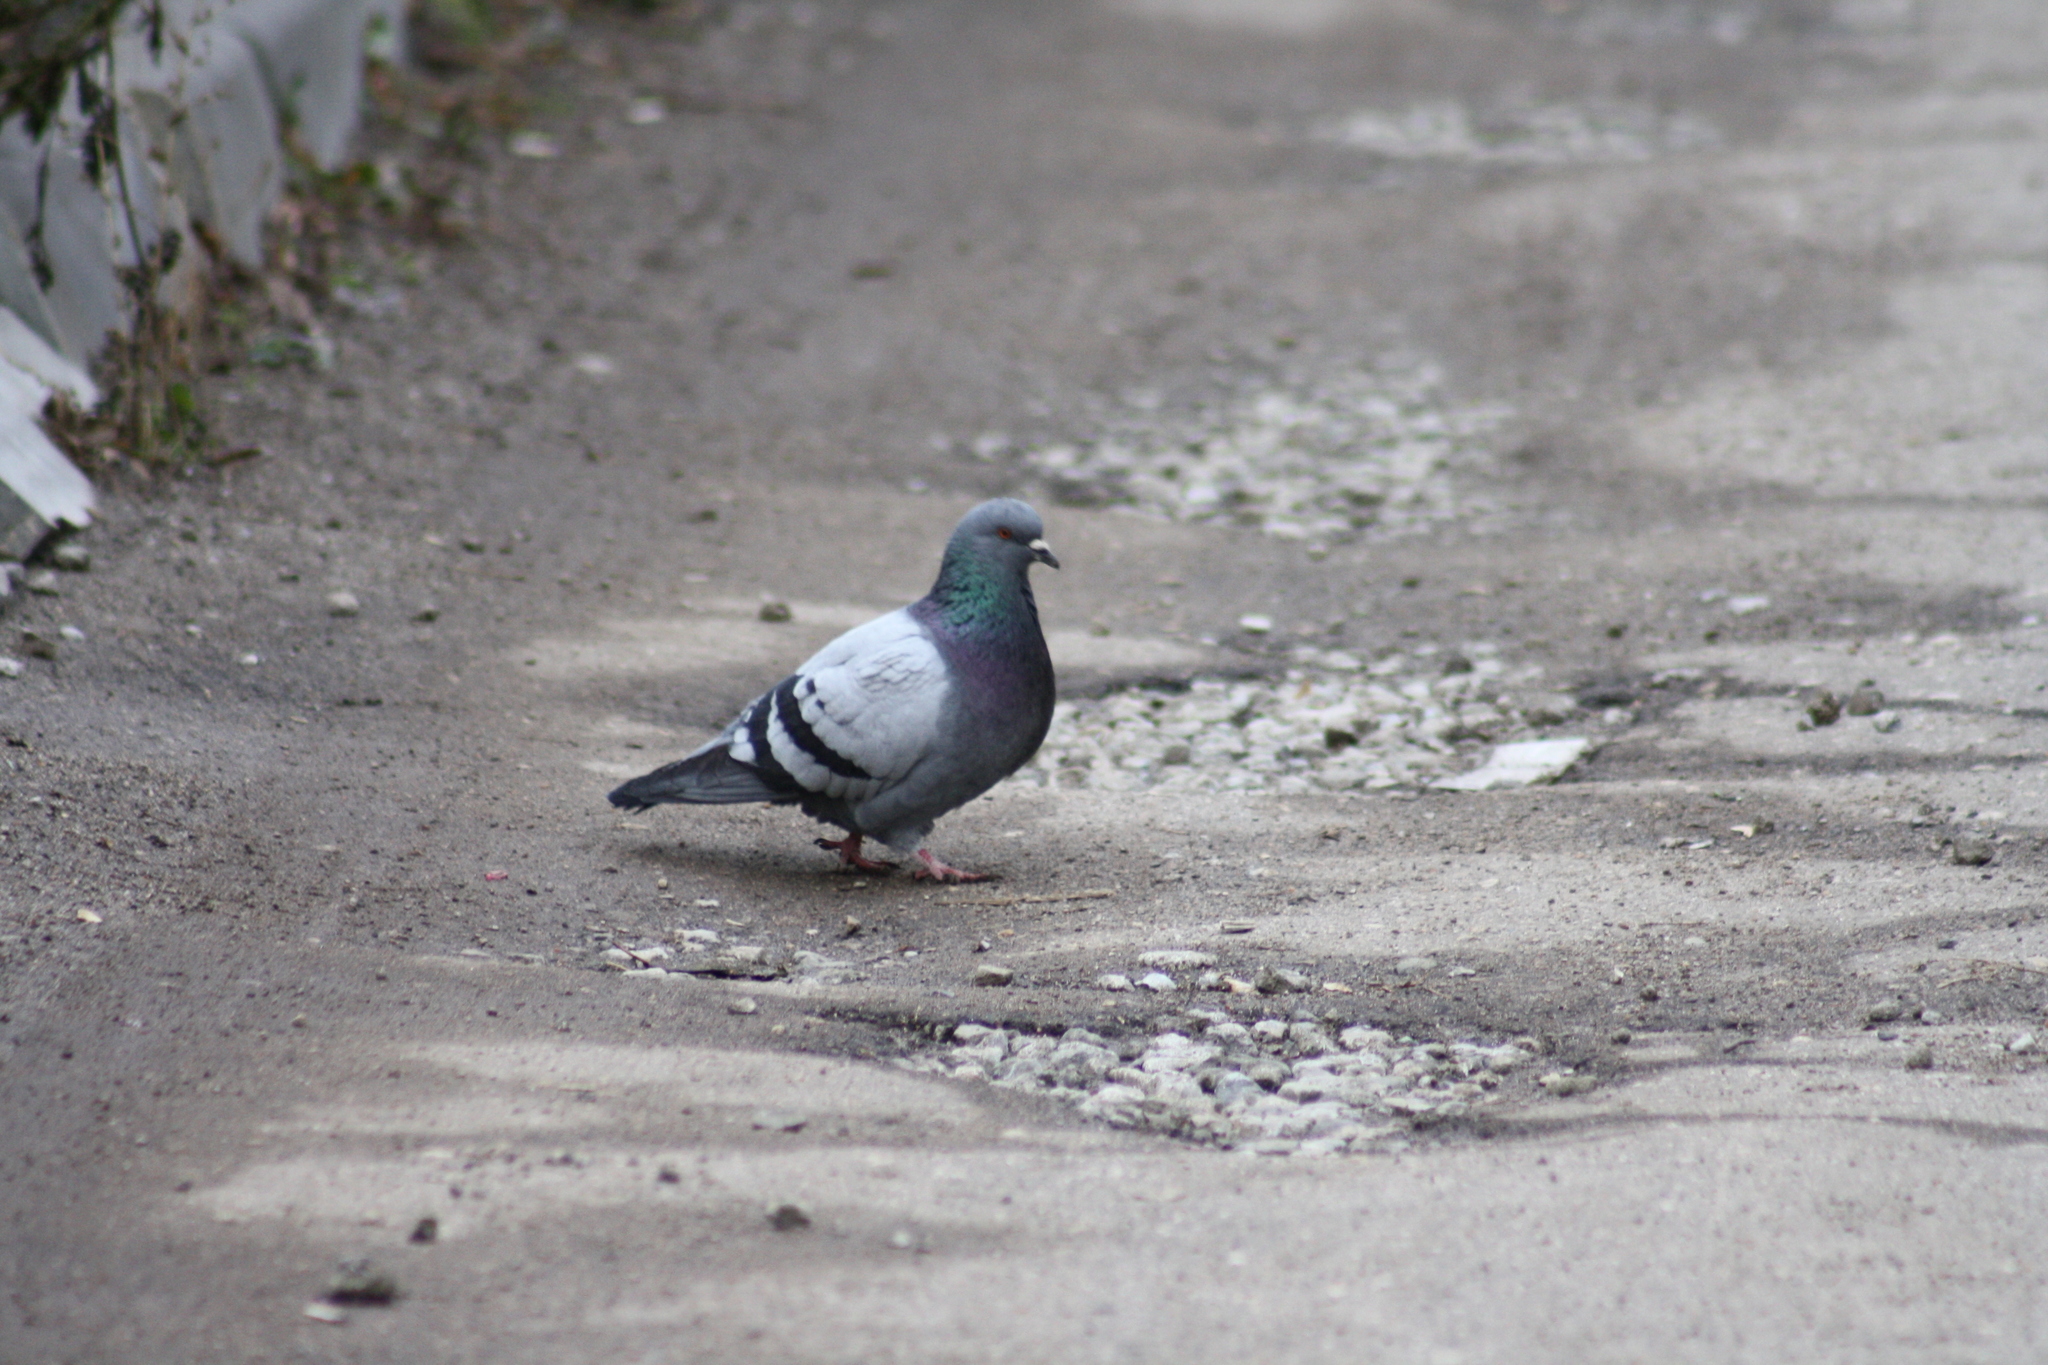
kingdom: Animalia
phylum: Chordata
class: Aves
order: Columbiformes
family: Columbidae
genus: Columba
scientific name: Columba livia
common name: Rock pigeon
